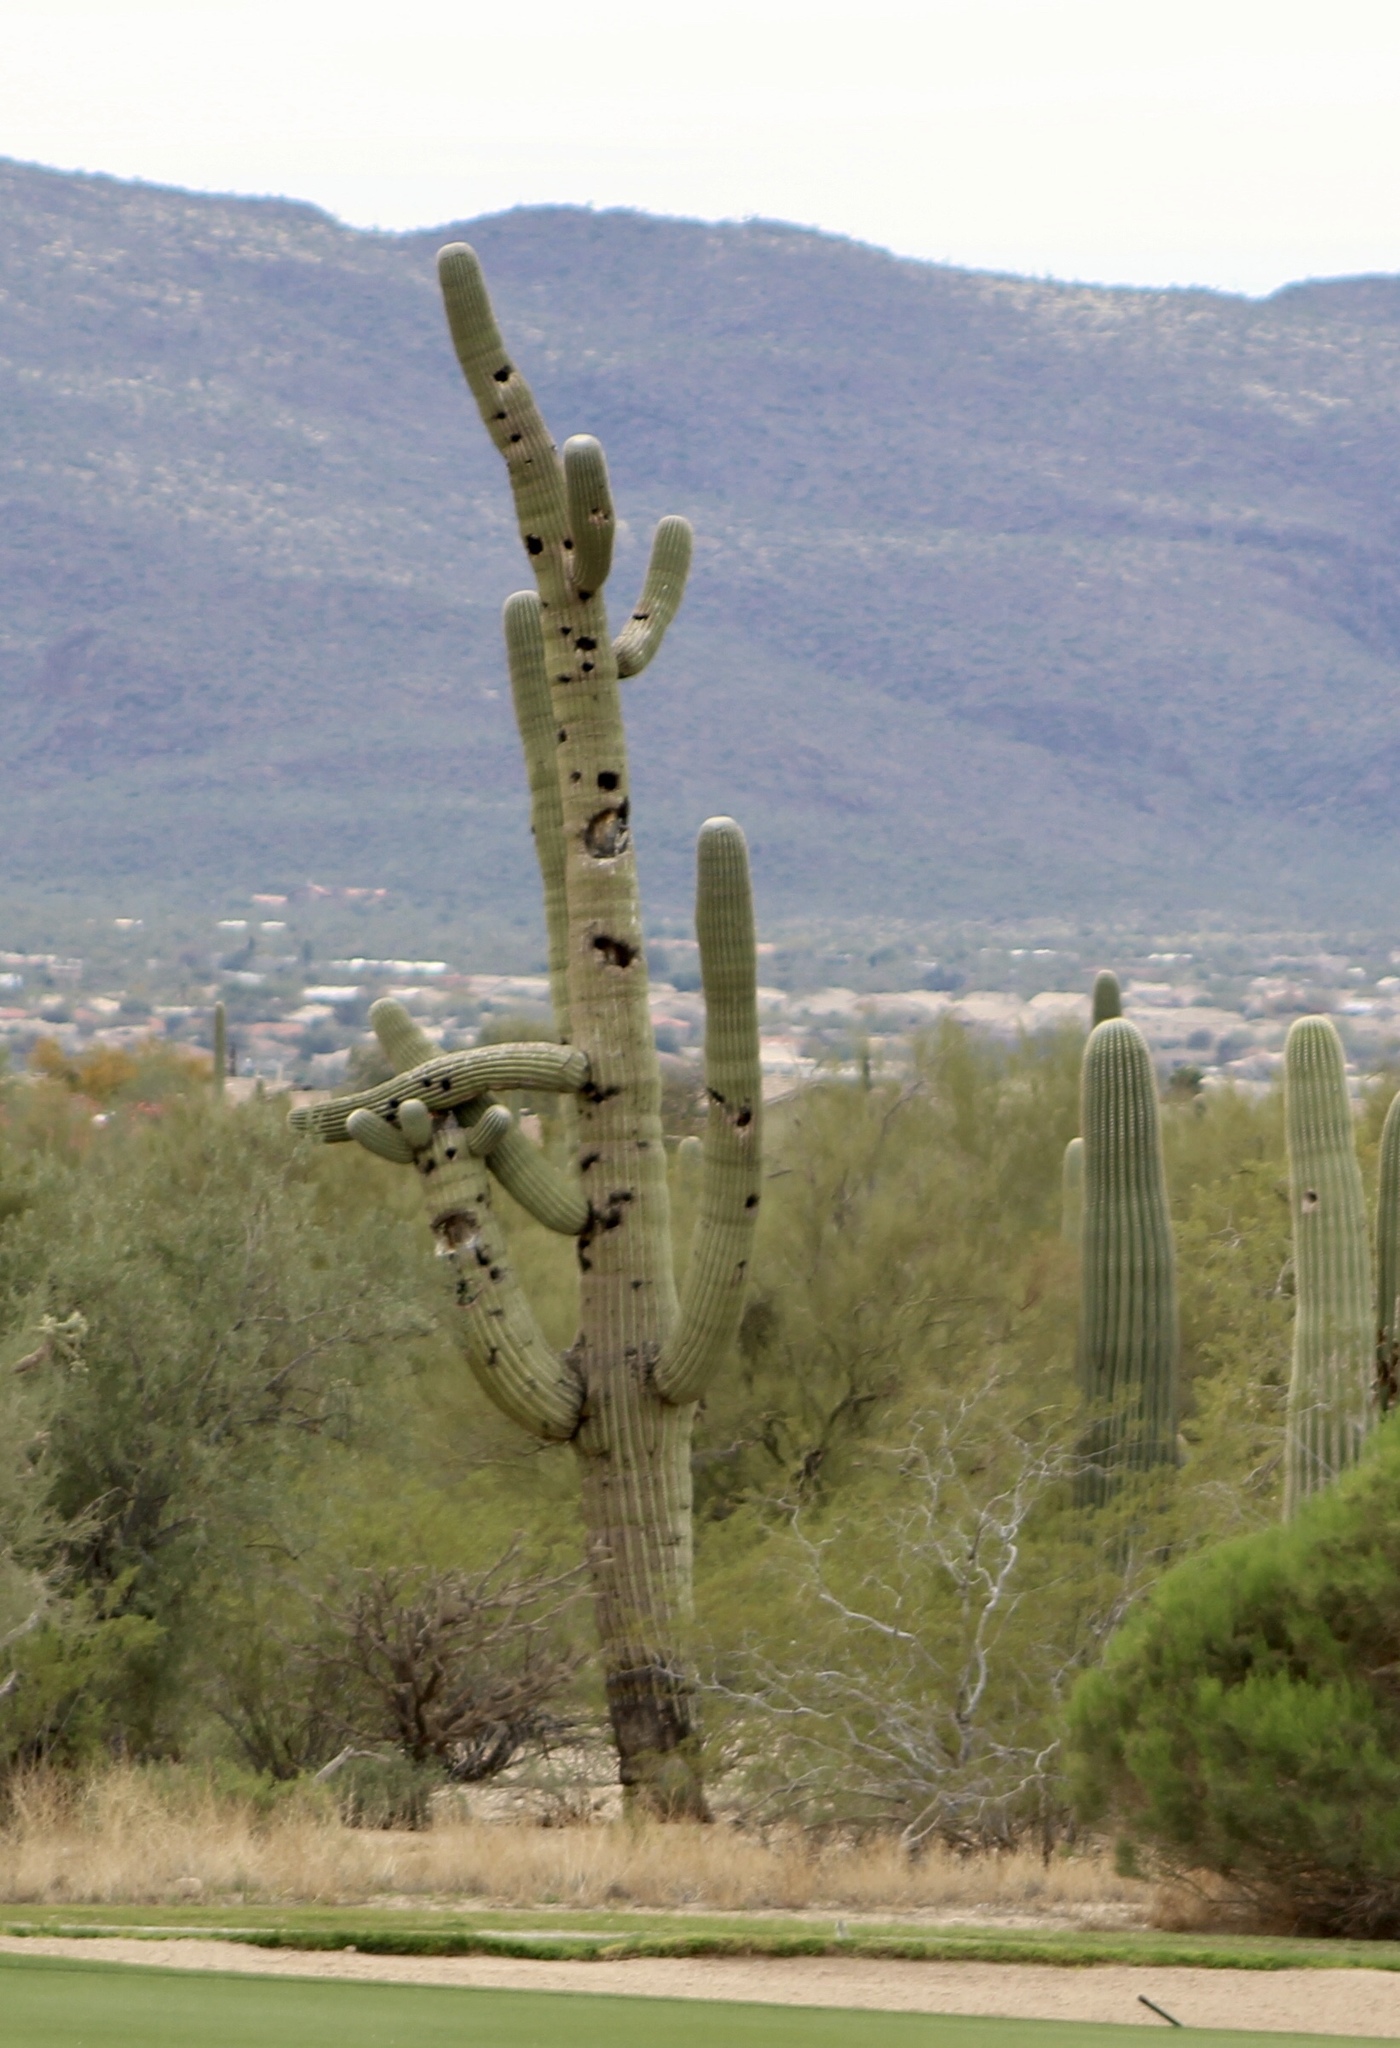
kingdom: Plantae
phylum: Tracheophyta
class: Magnoliopsida
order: Caryophyllales
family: Cactaceae
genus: Carnegiea
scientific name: Carnegiea gigantea
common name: Saguaro
